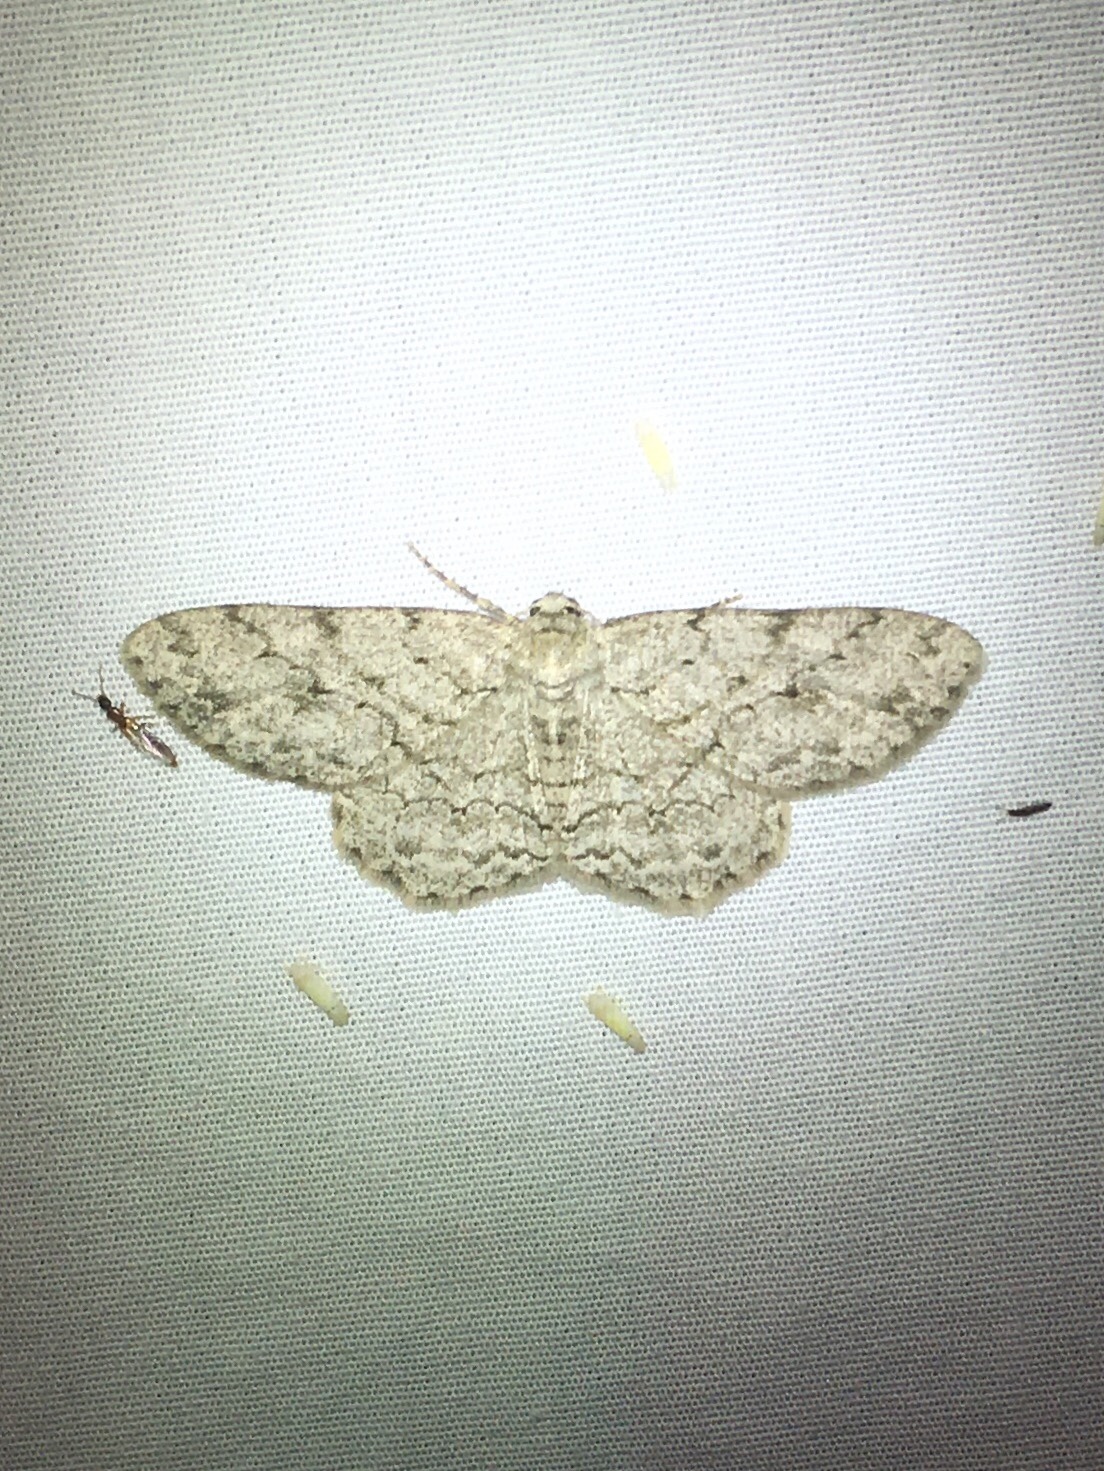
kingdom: Animalia
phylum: Arthropoda
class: Insecta
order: Lepidoptera
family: Geometridae
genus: Ectropis
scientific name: Ectropis crepuscularia
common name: Engrailed
